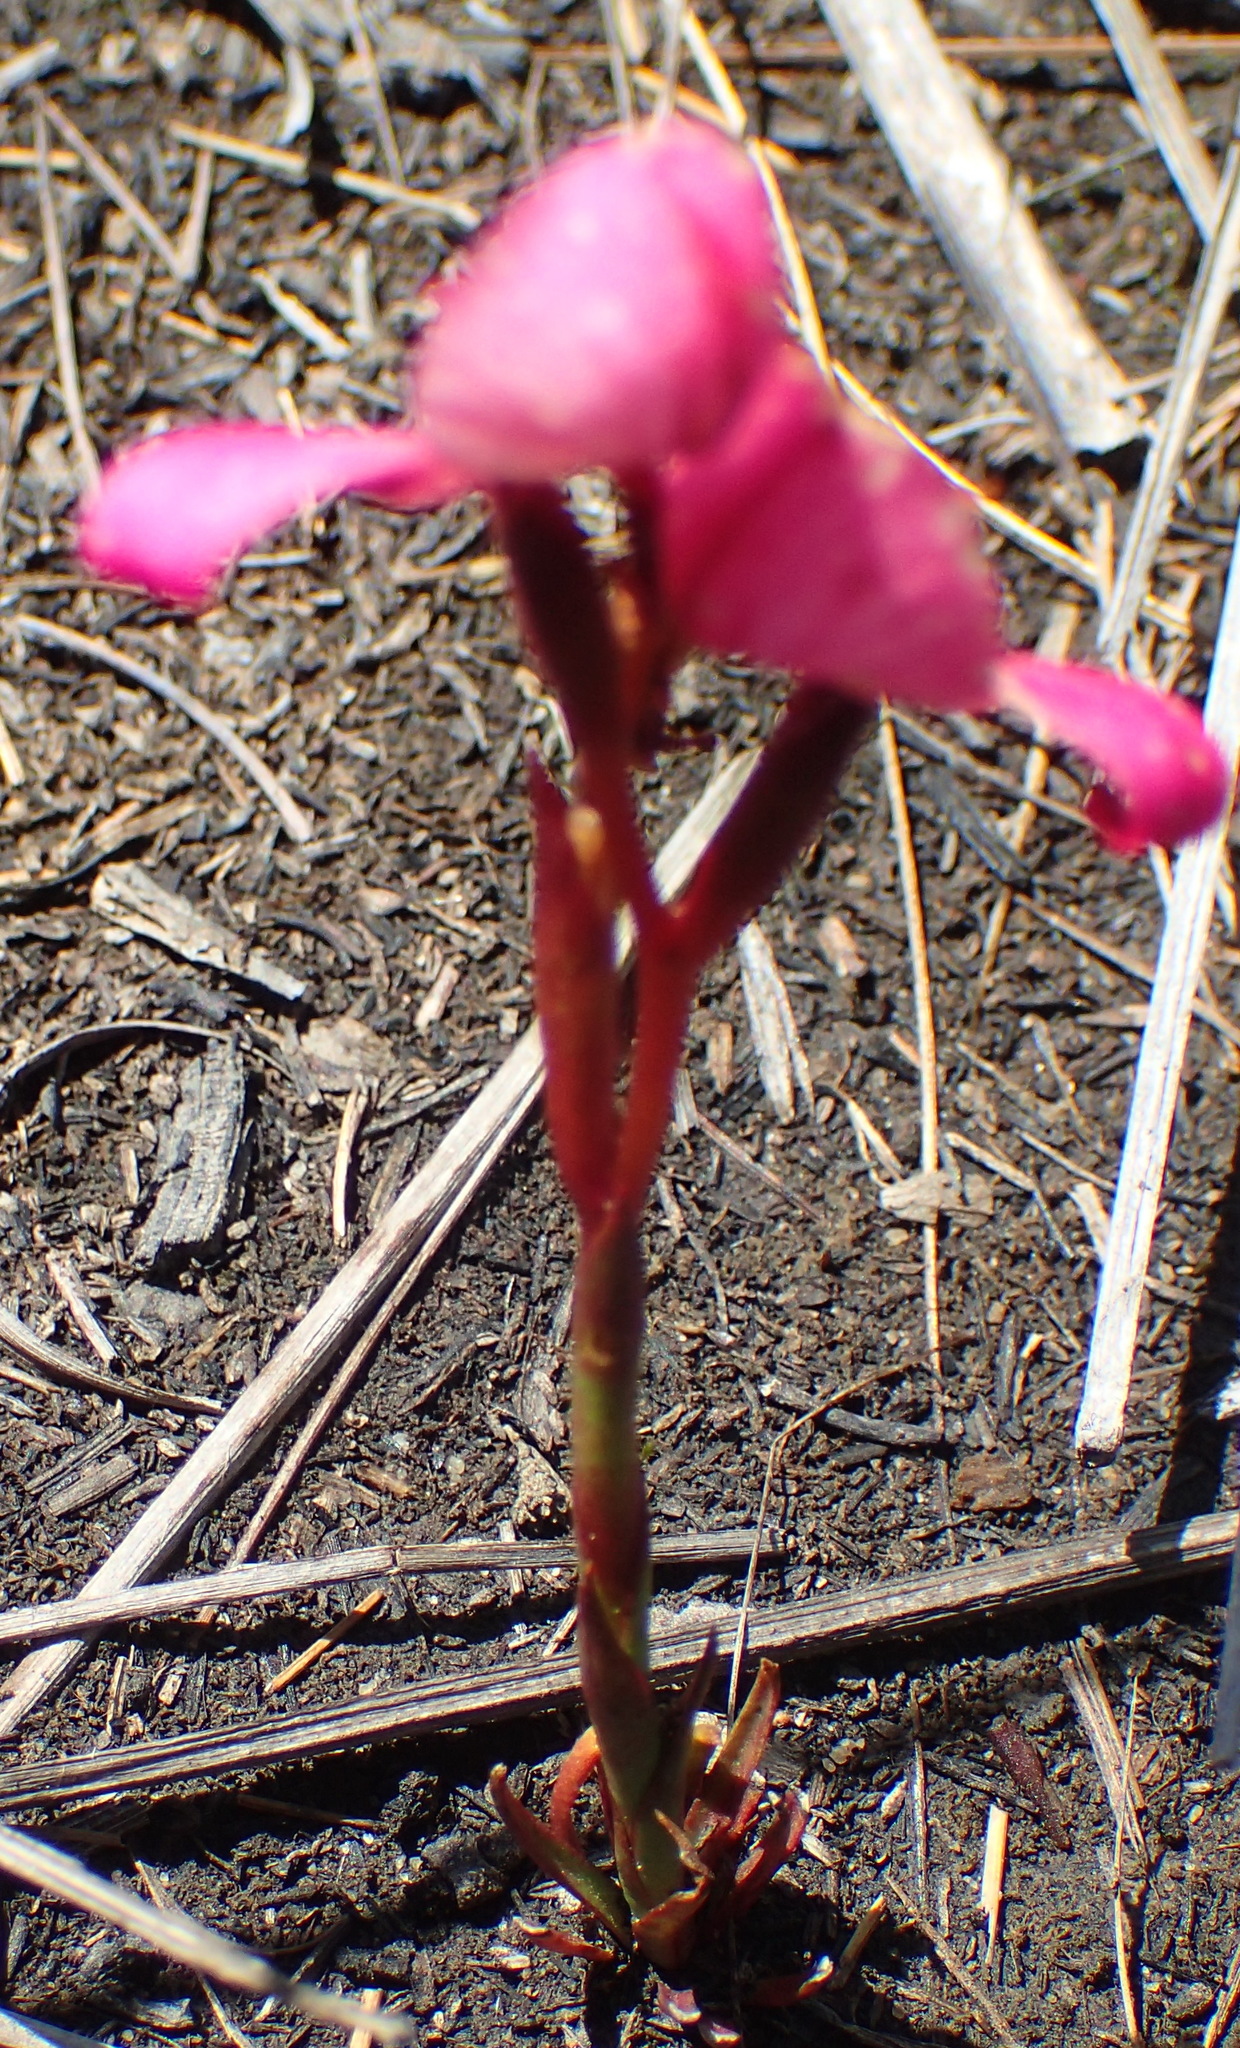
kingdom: Plantae
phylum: Tracheophyta
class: Liliopsida
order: Asparagales
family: Orchidaceae
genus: Disa
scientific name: Disa filicornis
